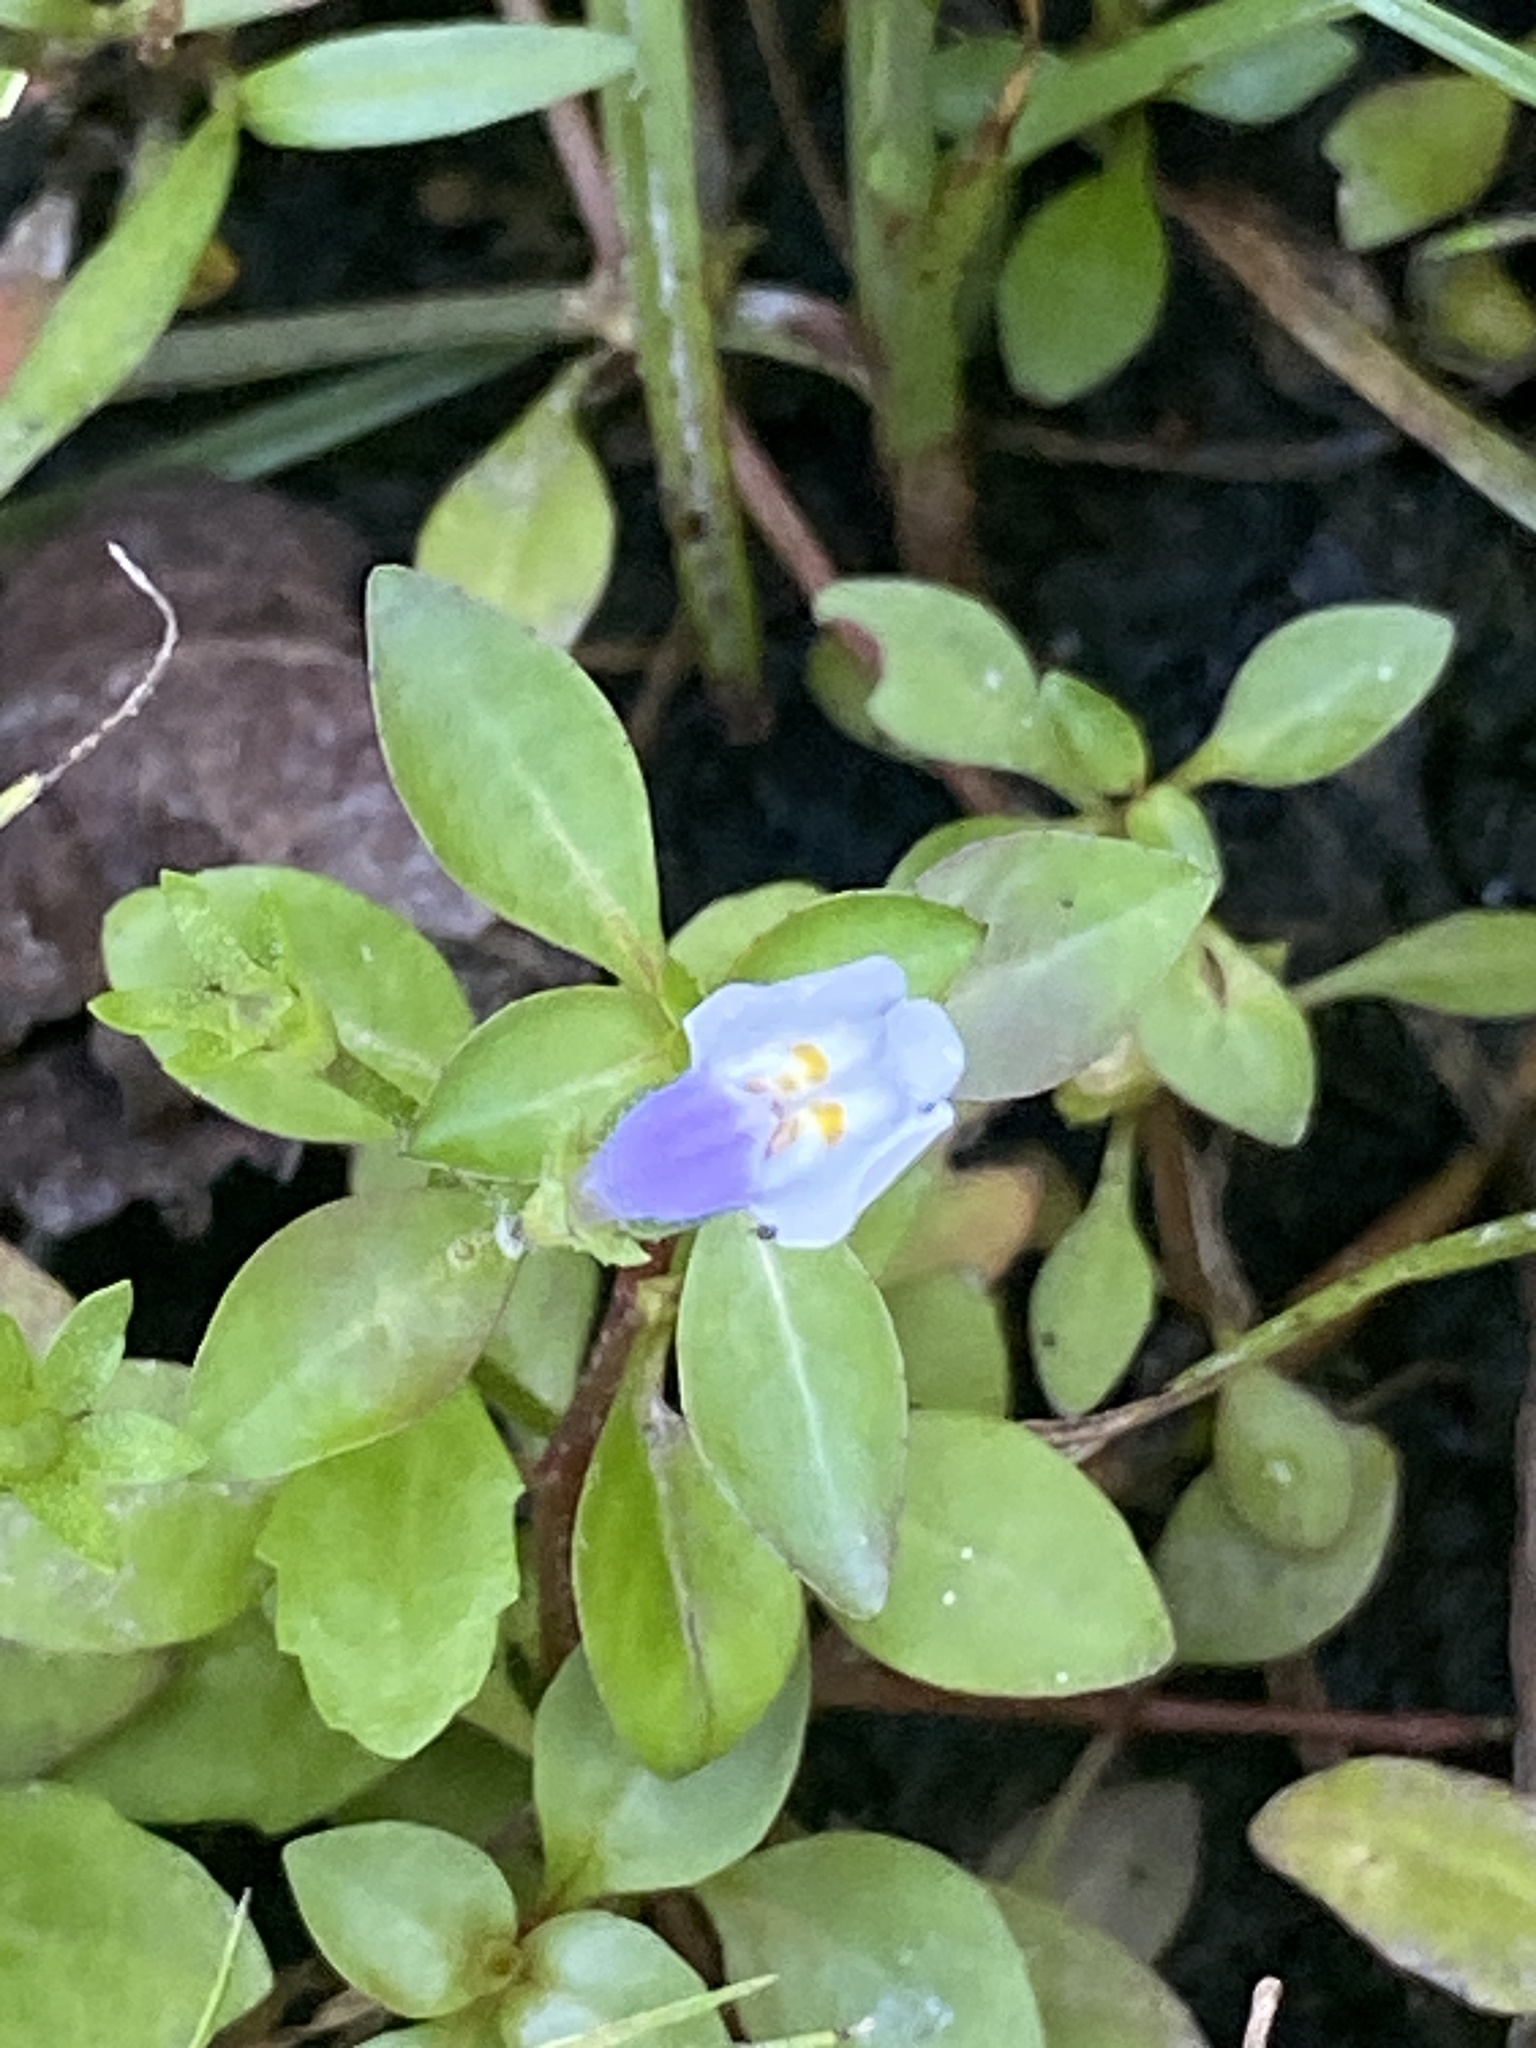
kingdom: Plantae
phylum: Tracheophyta
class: Magnoliopsida
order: Lamiales
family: Mazaceae
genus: Mazus
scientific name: Mazus pumilus
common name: Japanese mazus
